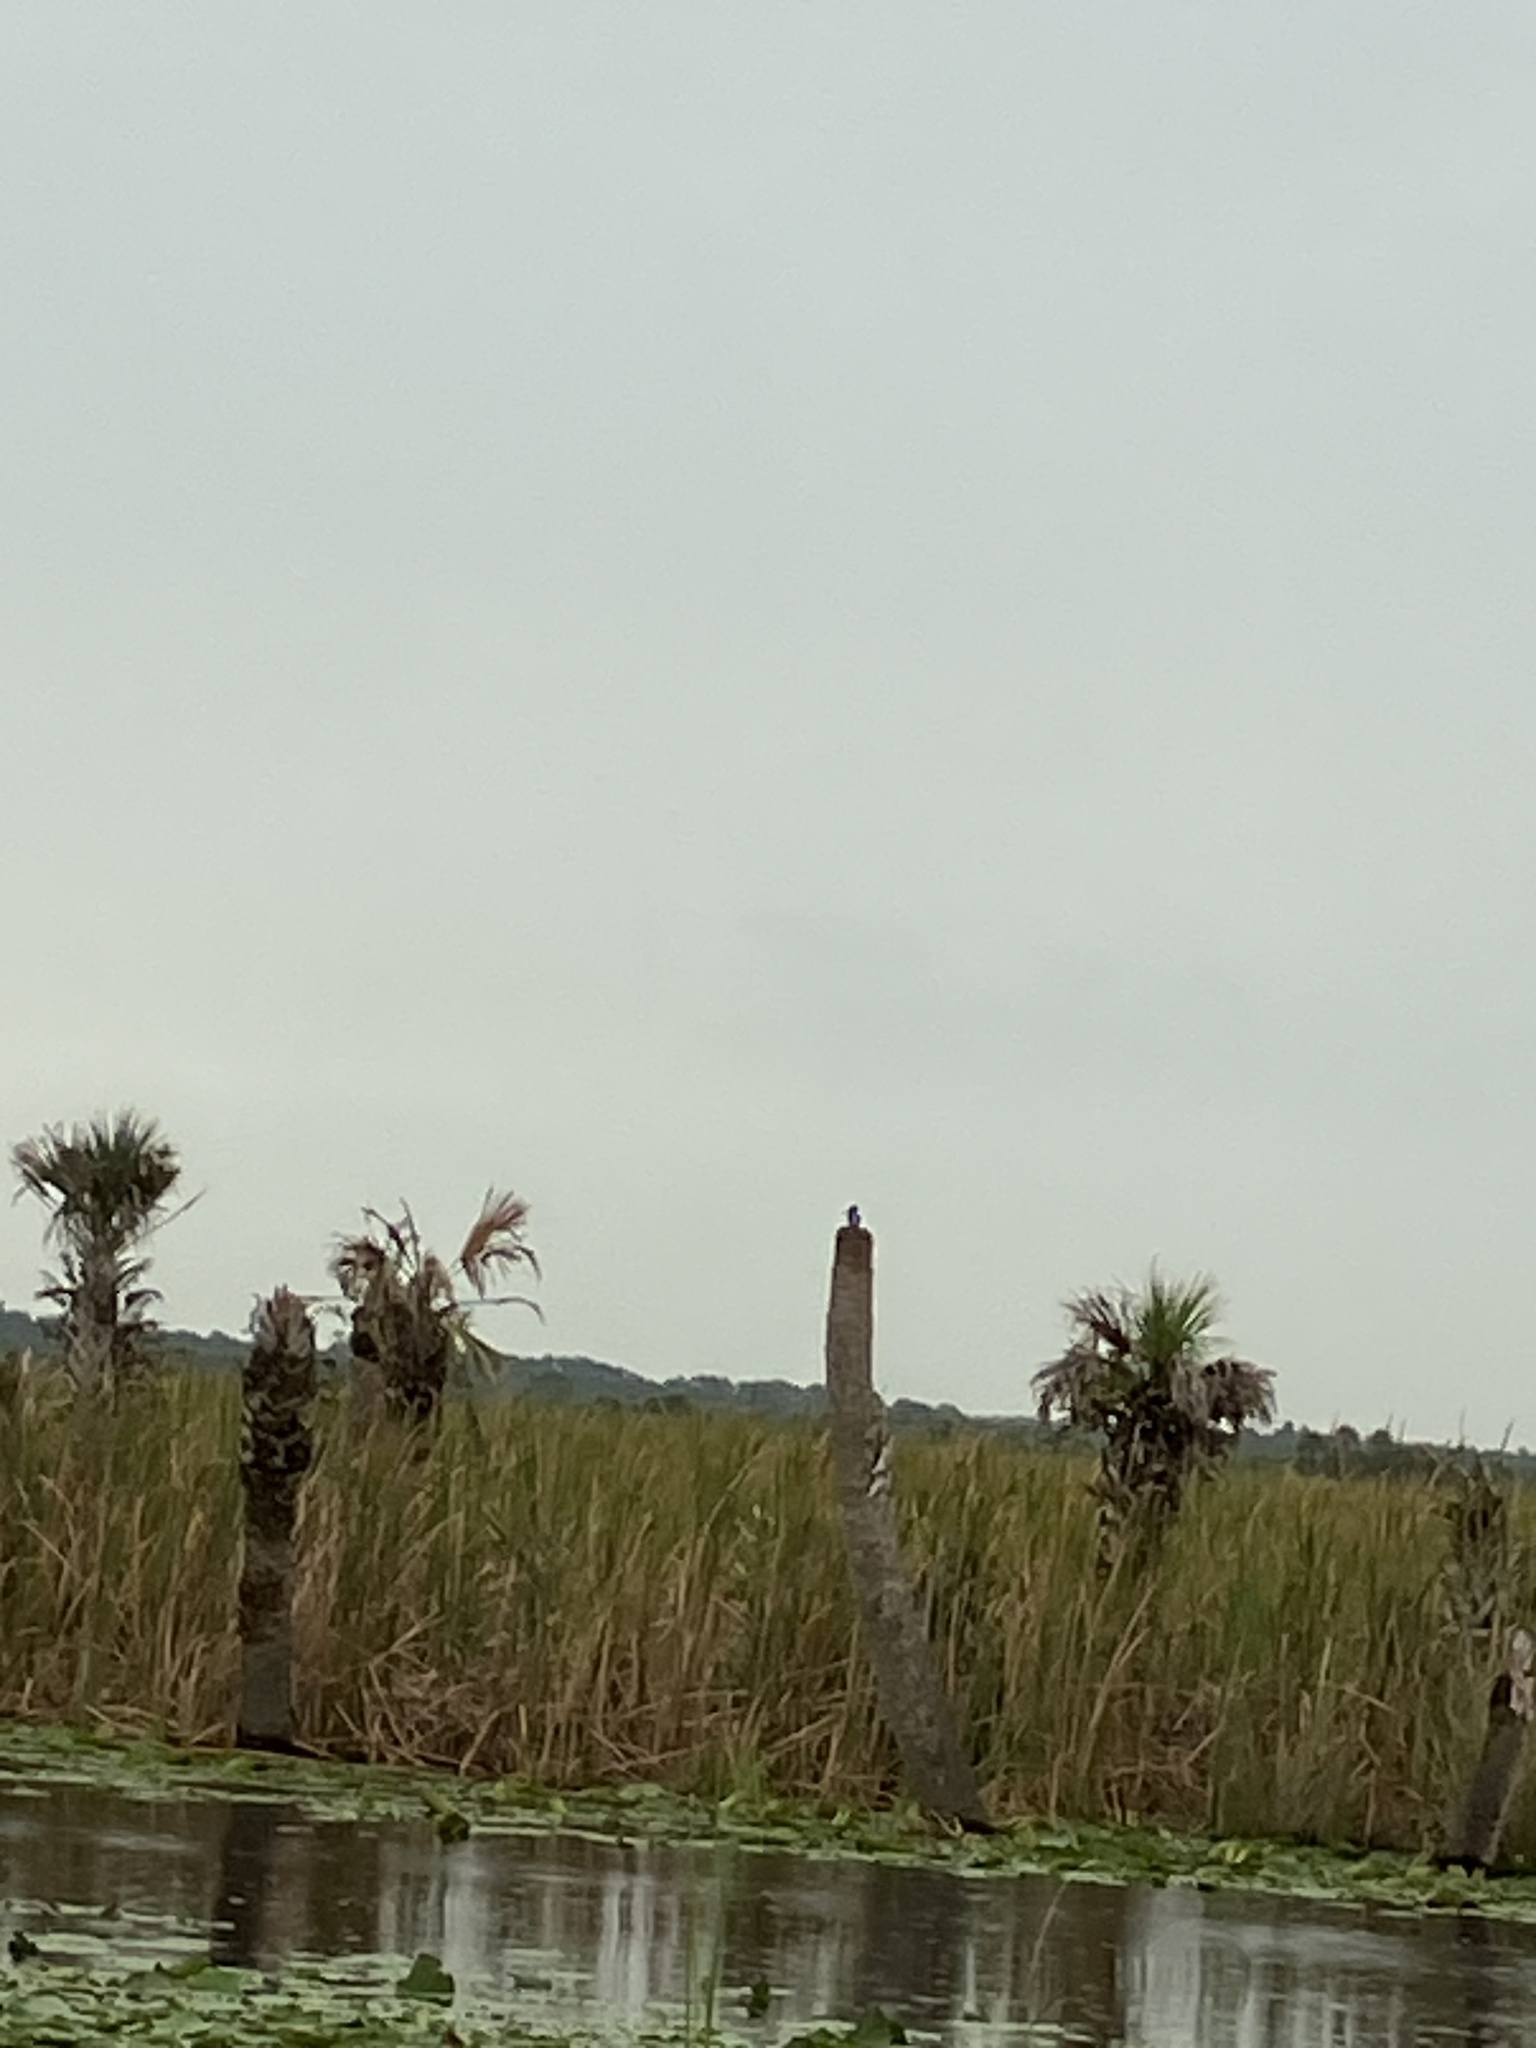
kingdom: Animalia
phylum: Chordata
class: Aves
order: Coraciiformes
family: Alcedinidae
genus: Megaceryle
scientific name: Megaceryle alcyon
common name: Belted kingfisher
